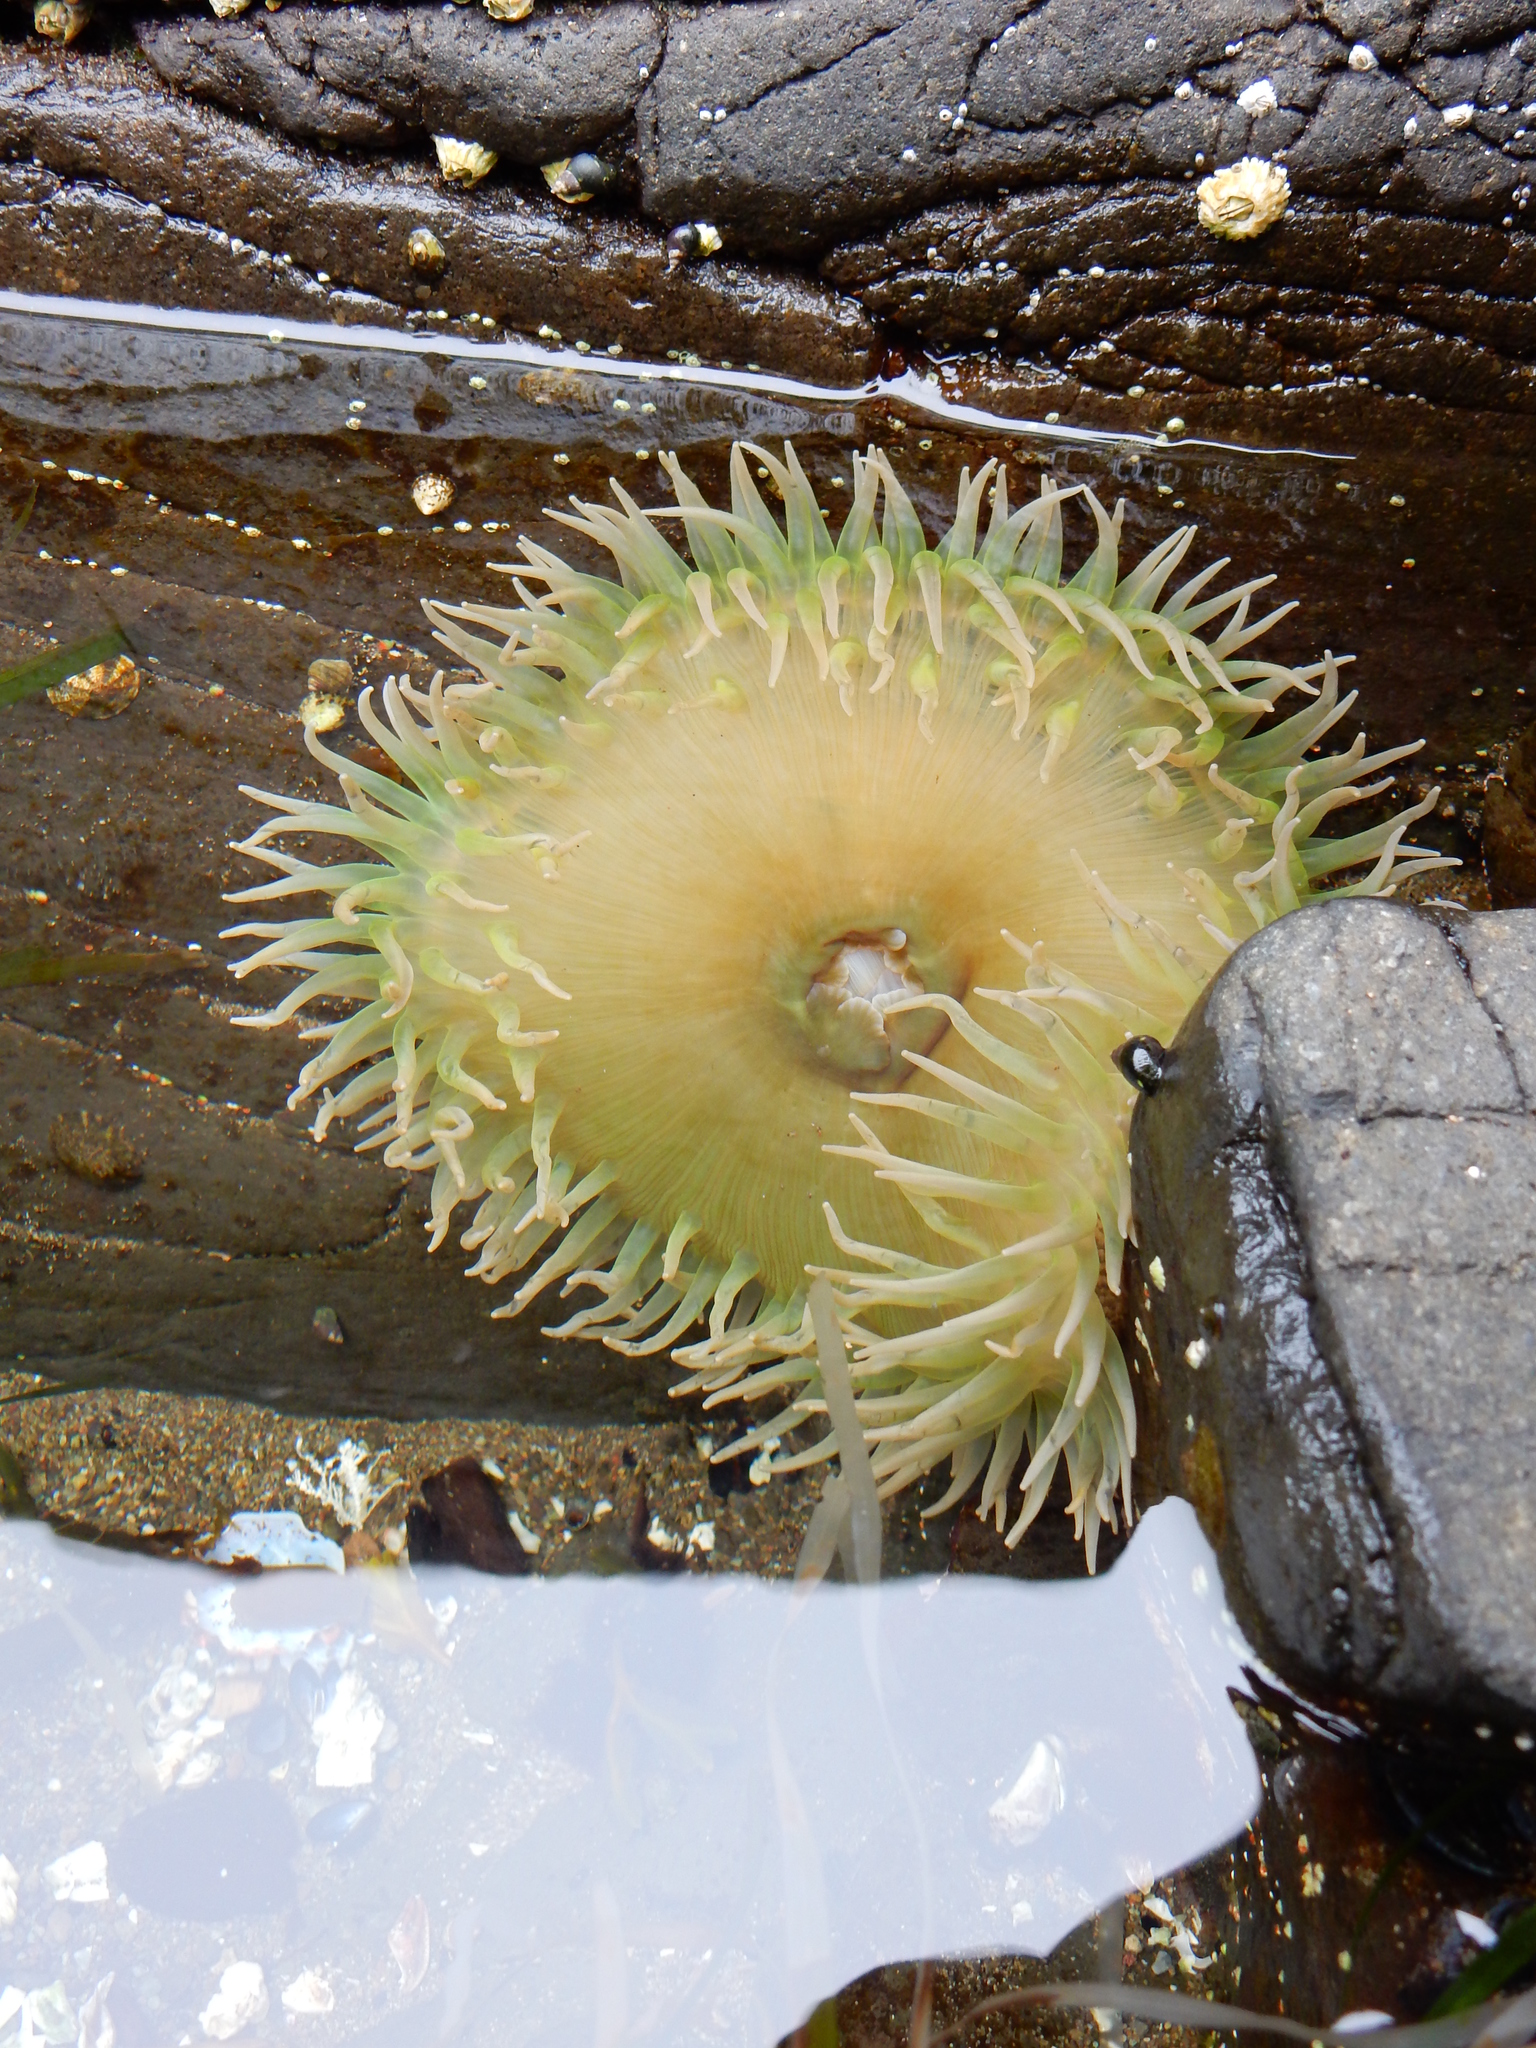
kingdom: Animalia
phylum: Cnidaria
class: Anthozoa
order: Actiniaria
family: Actiniidae
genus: Anthopleura
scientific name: Anthopleura xanthogrammica
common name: Giant green anemone
